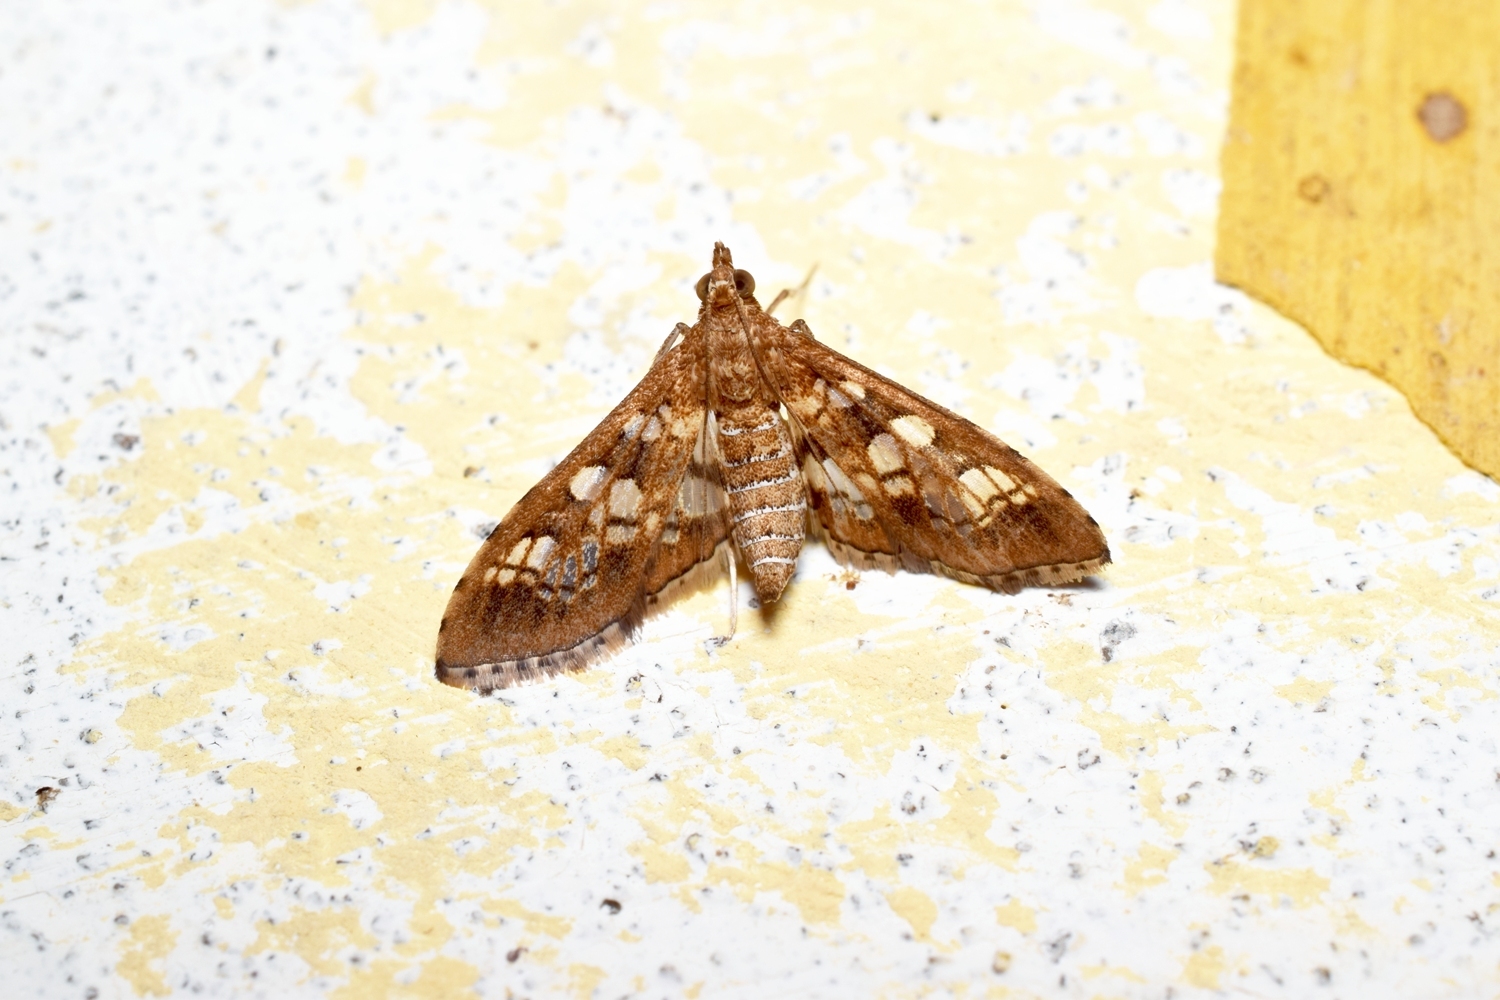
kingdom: Animalia
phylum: Arthropoda
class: Insecta
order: Lepidoptera
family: Crambidae
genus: Sameodes
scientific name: Sameodes cancellalis
